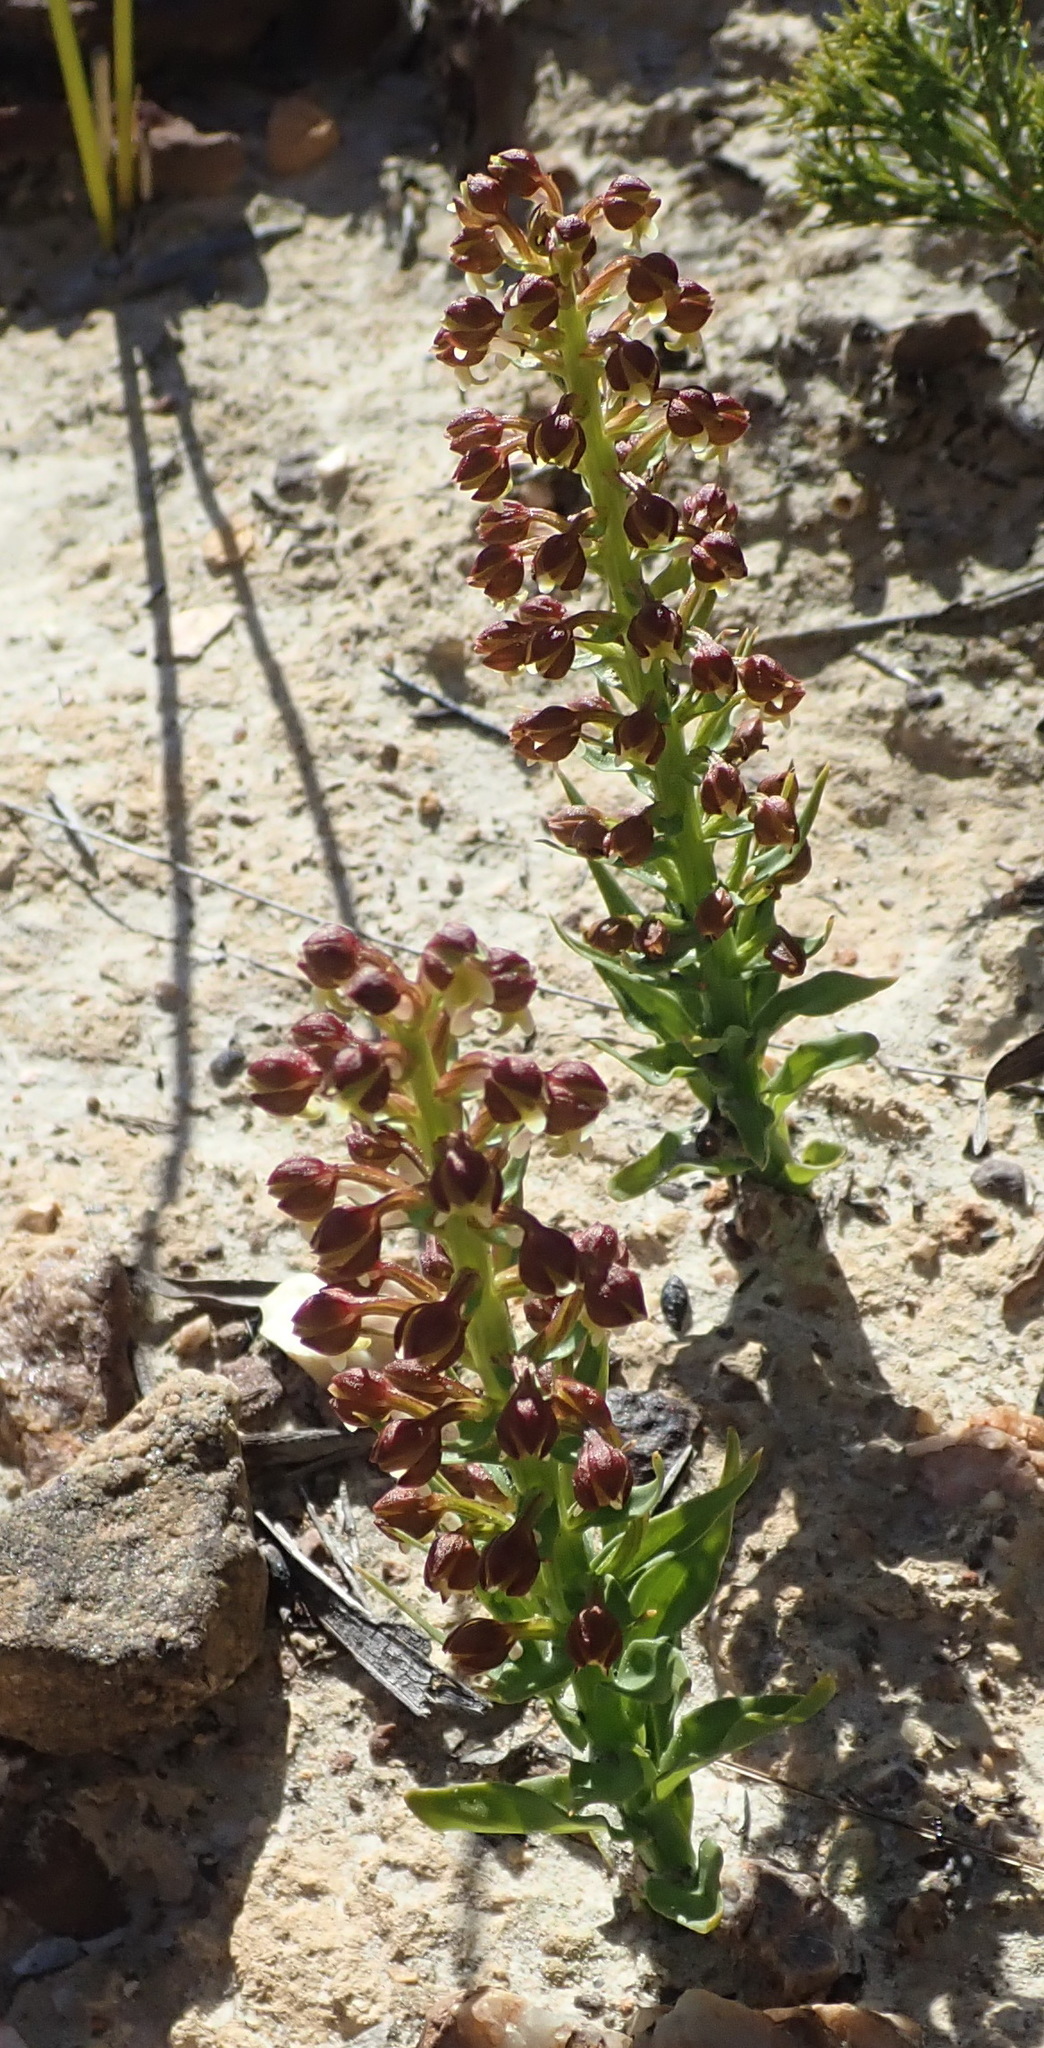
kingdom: Plantae
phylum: Tracheophyta
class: Liliopsida
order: Asparagales
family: Orchidaceae
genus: Brachycorythis
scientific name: Brachycorythis mac-owaniana
